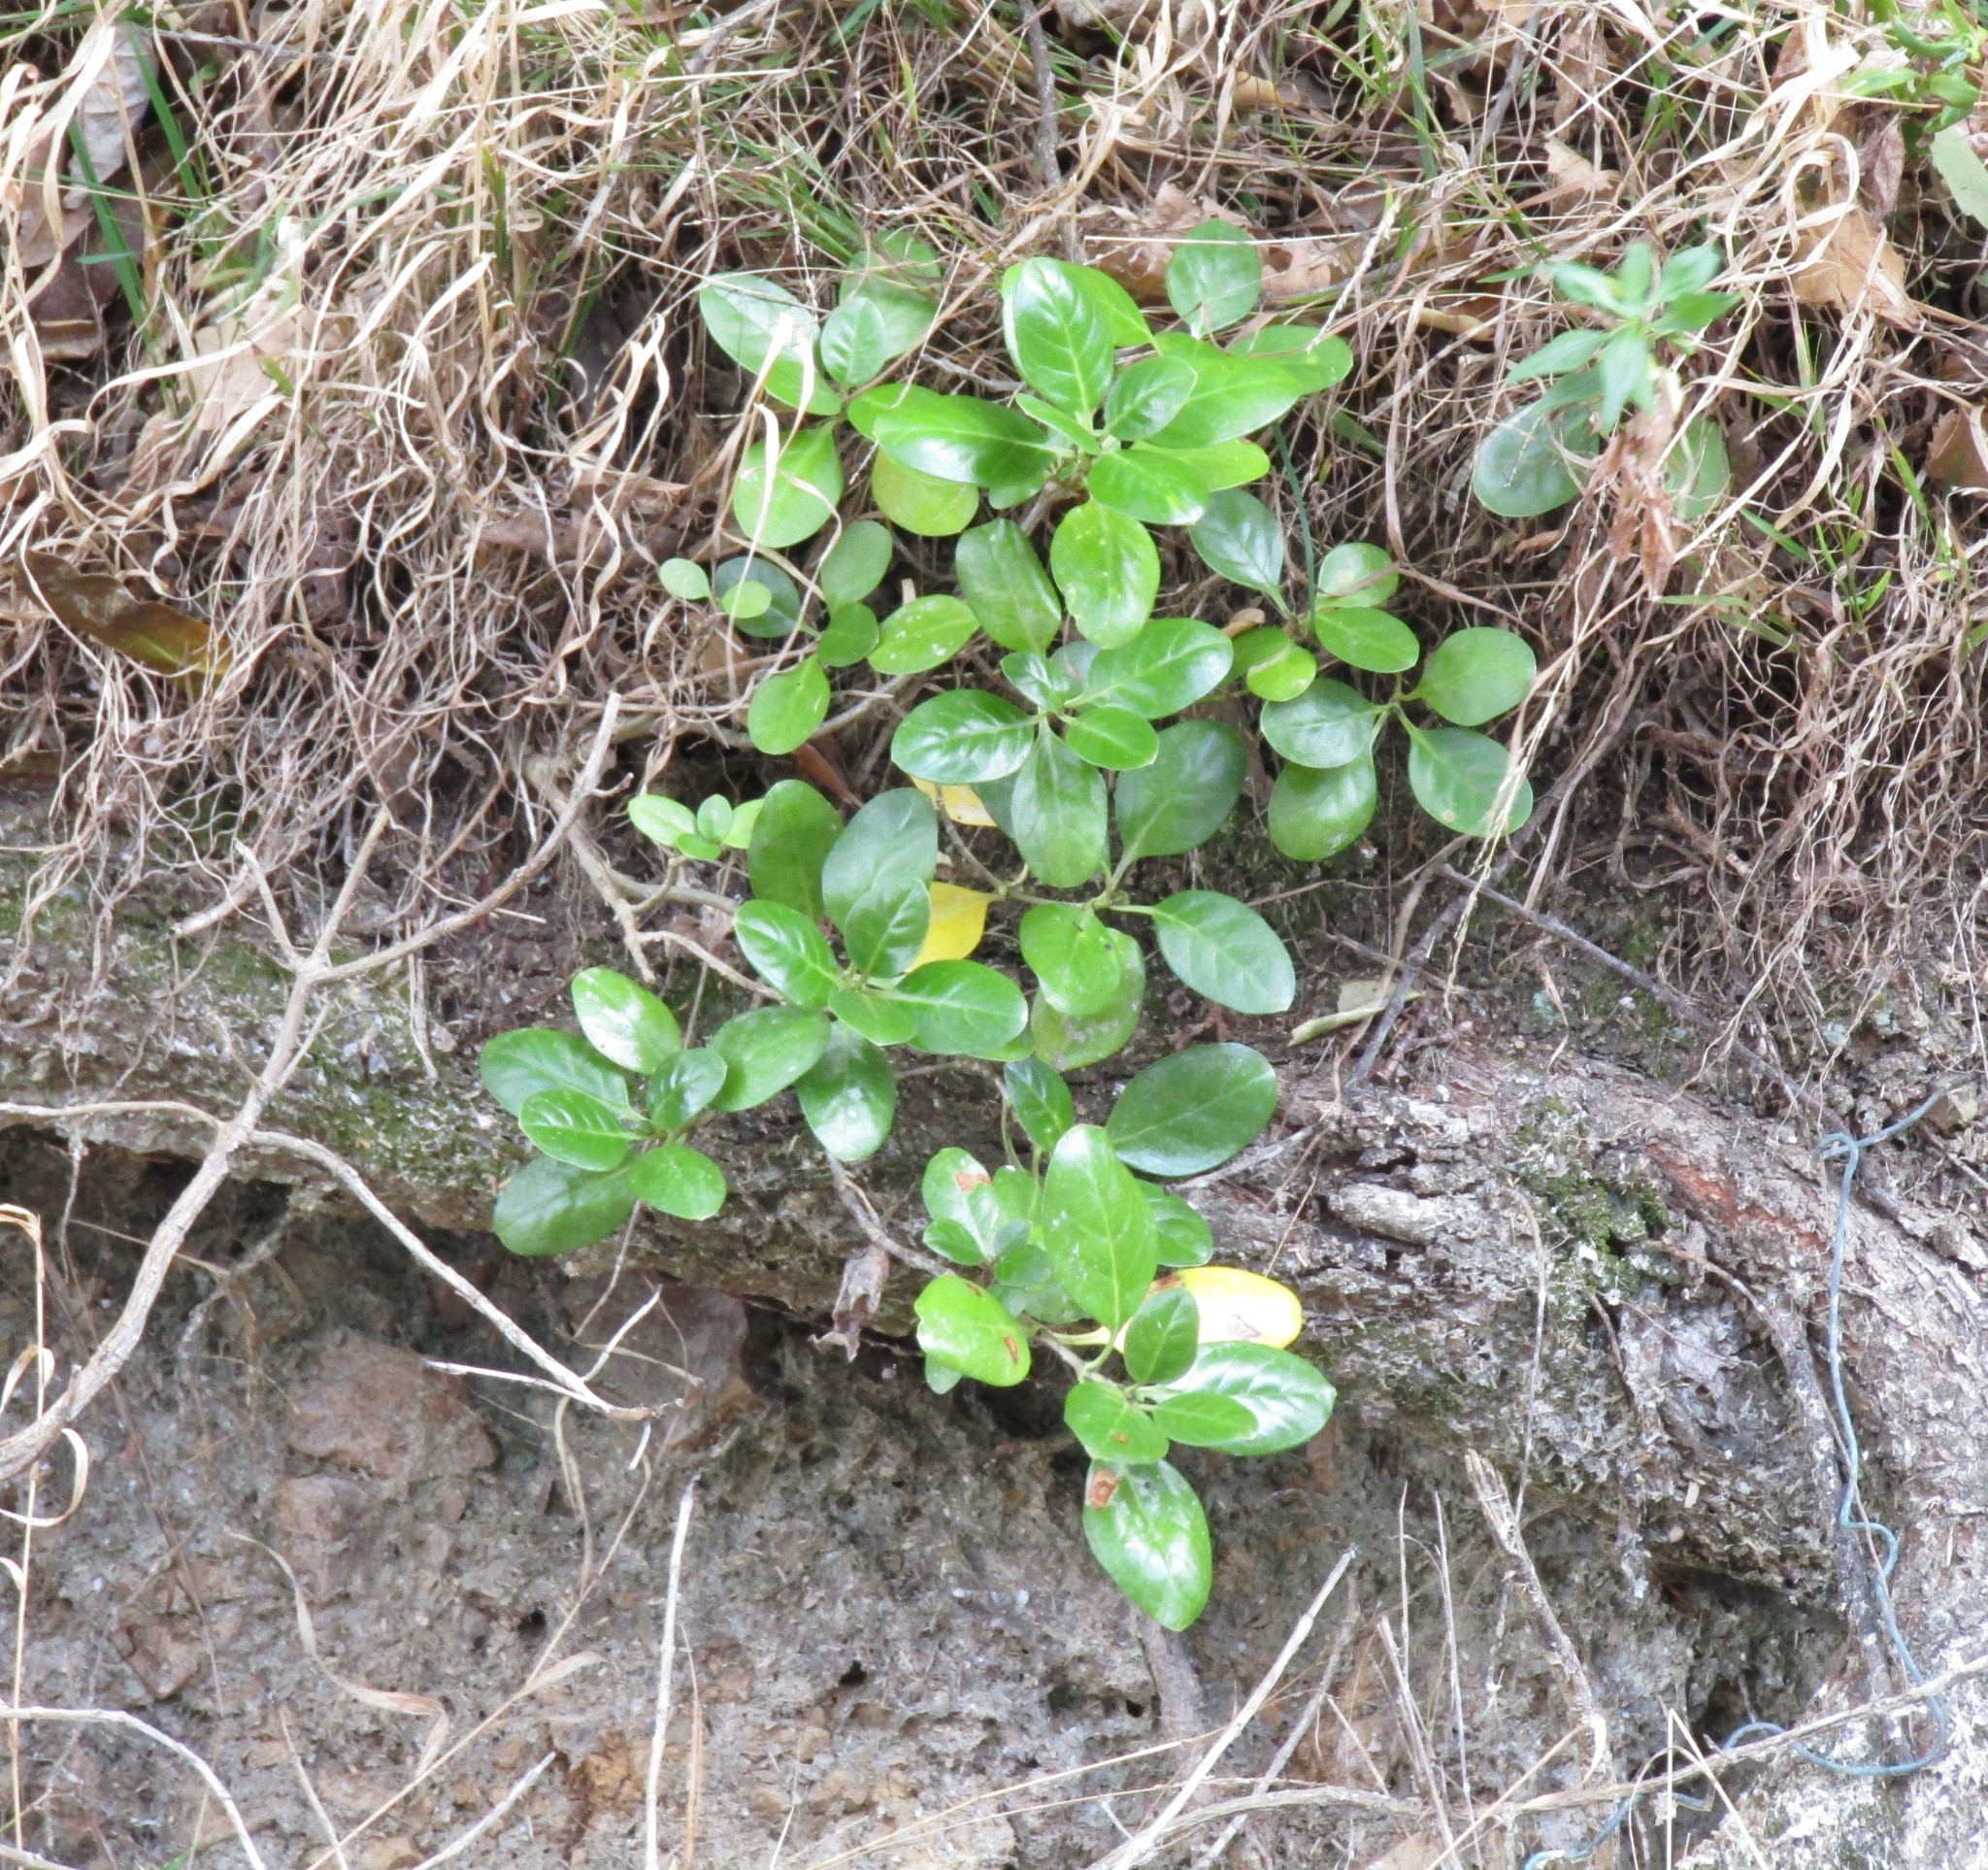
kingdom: Plantae
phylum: Tracheophyta
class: Magnoliopsida
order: Gentianales
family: Rubiaceae
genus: Coprosma
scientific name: Coprosma repens
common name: Tree bedstraw
